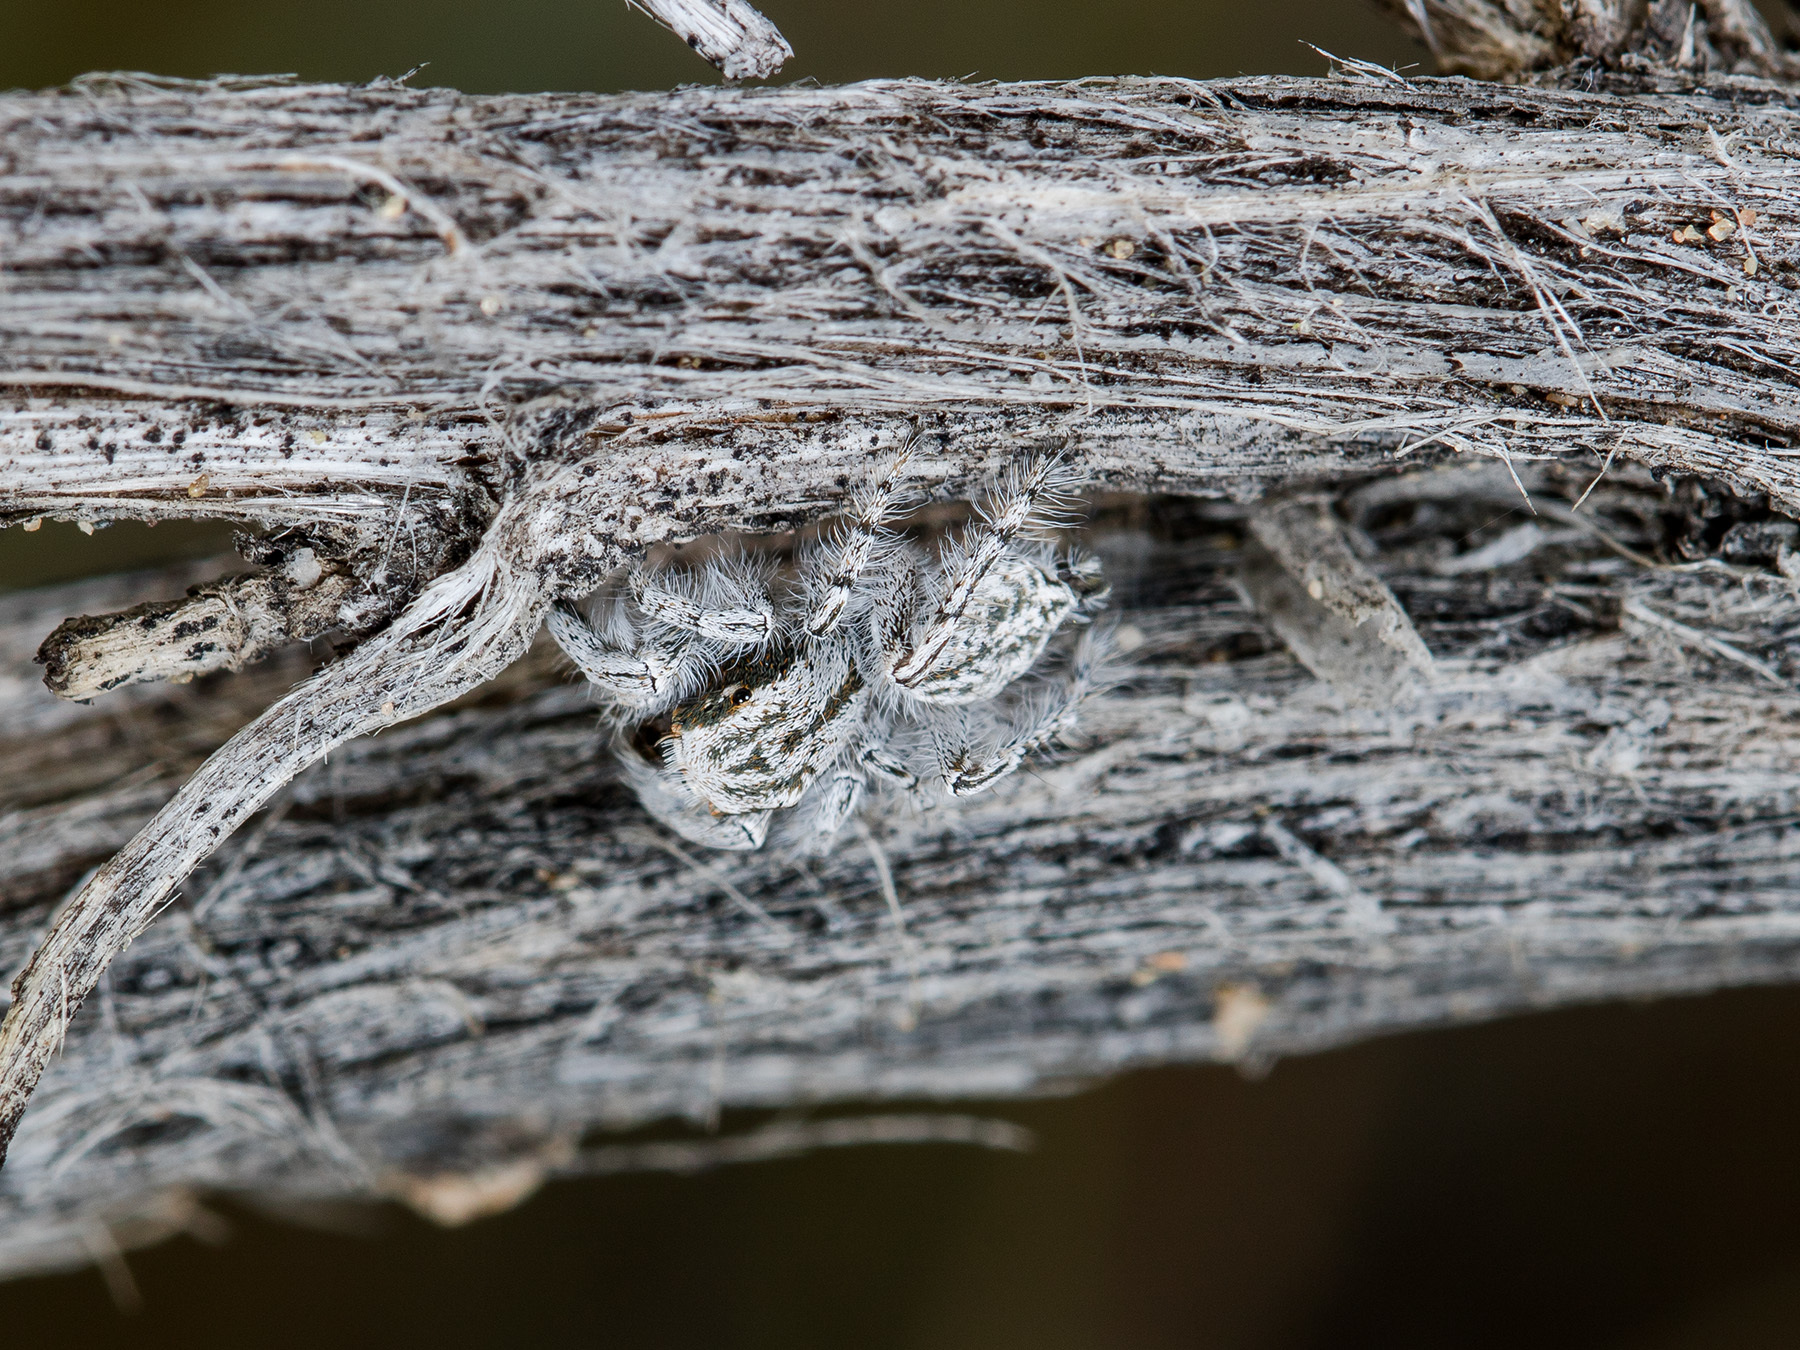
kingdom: Animalia
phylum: Arthropoda
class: Arachnida
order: Araneae
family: Salticidae
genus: Marusyllus
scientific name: Marusyllus aralicus
